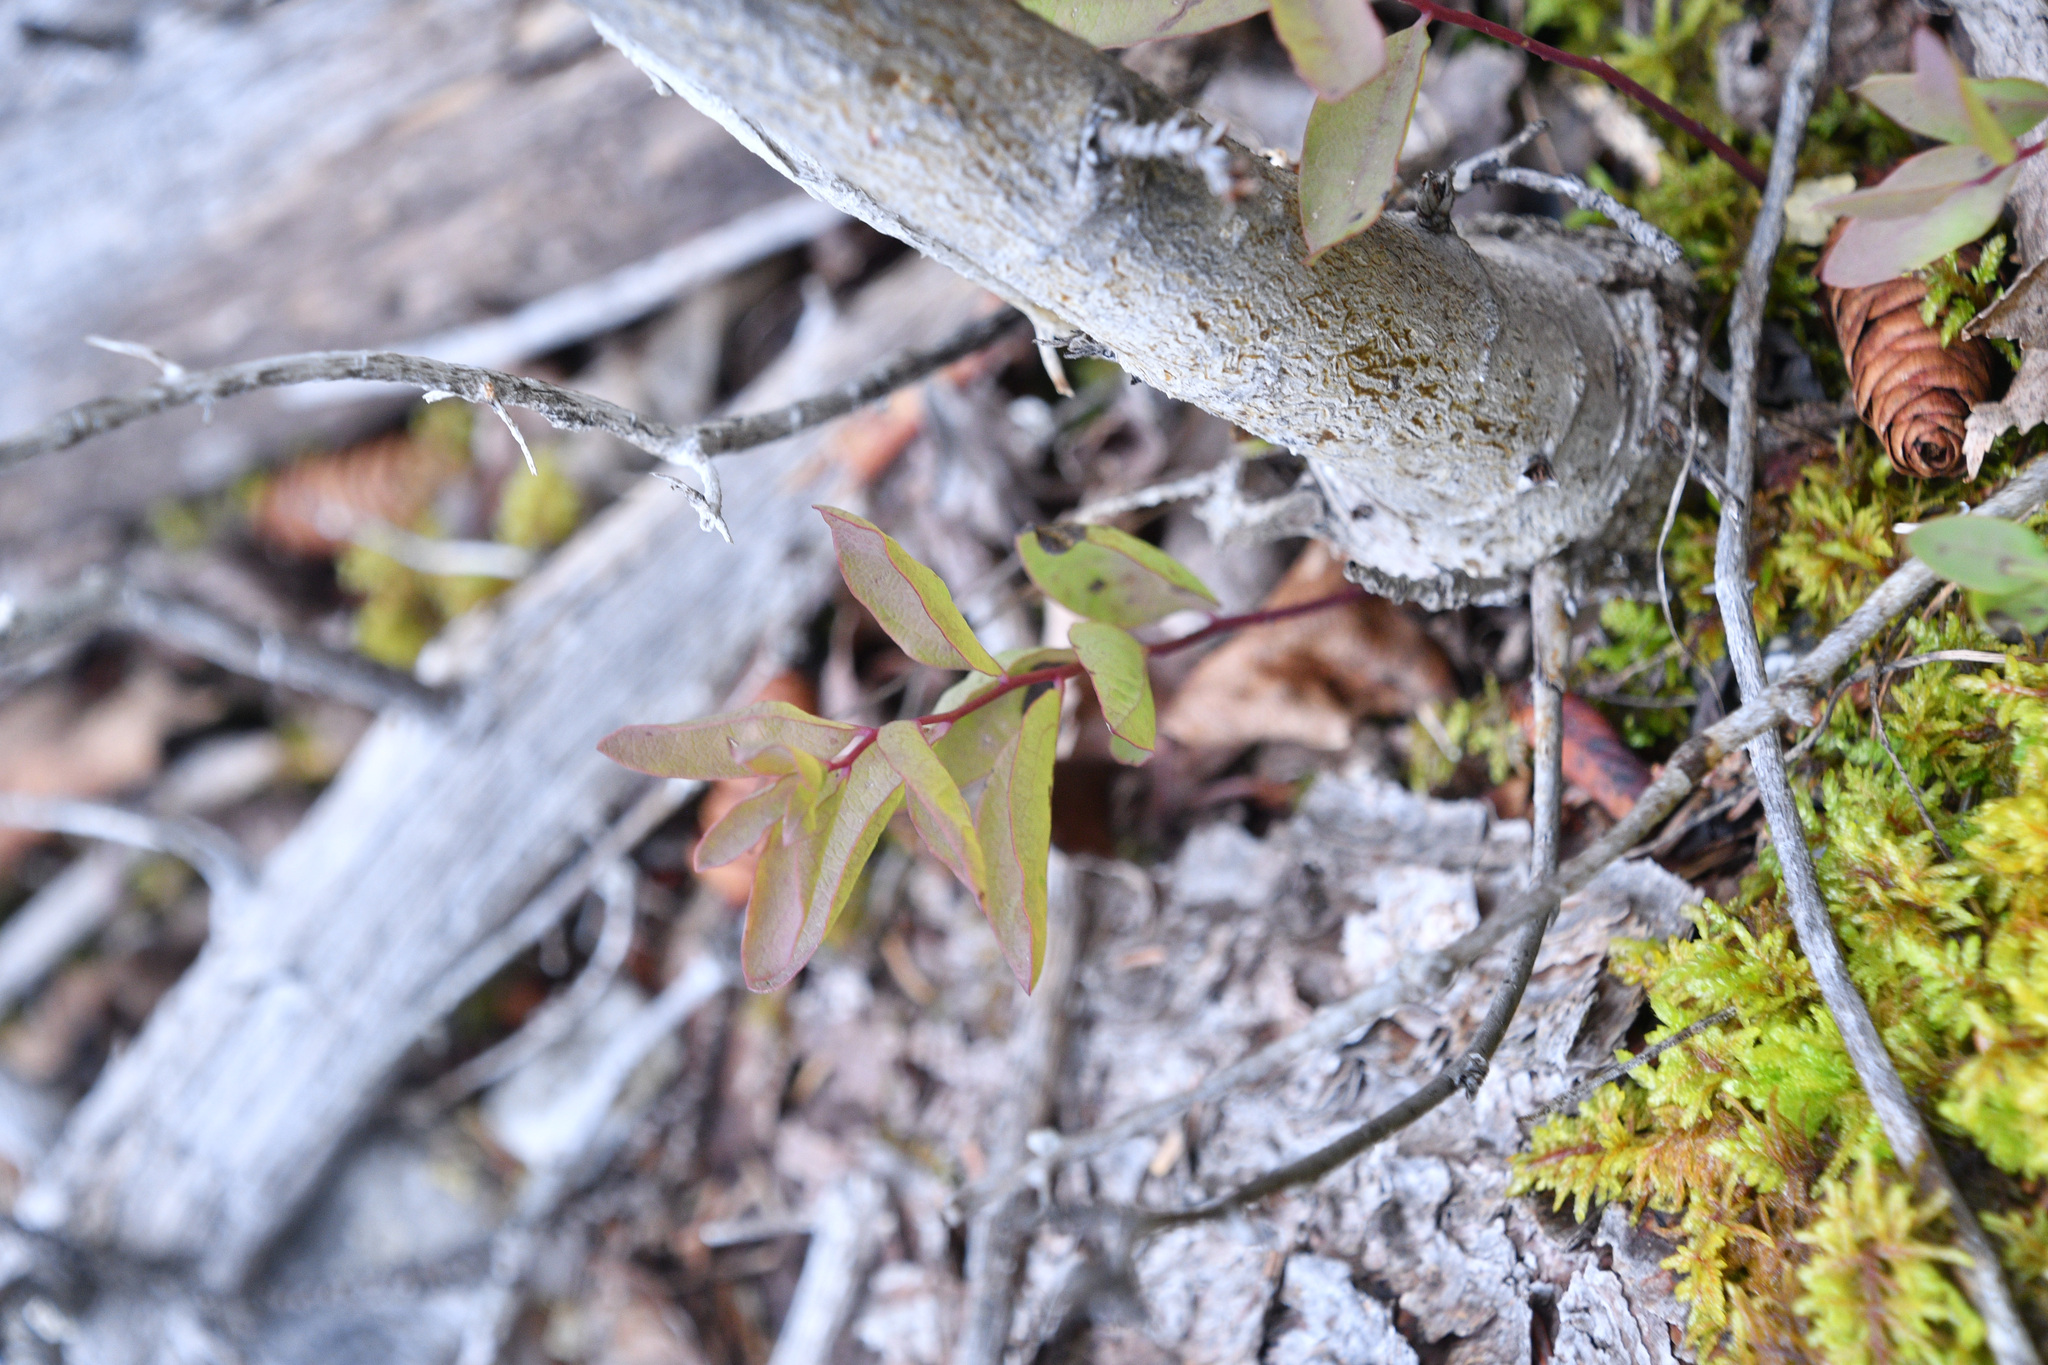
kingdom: Plantae
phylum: Tracheophyta
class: Magnoliopsida
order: Santalales
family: Comandraceae
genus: Geocaulon
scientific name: Geocaulon lividum
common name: Earthberry
